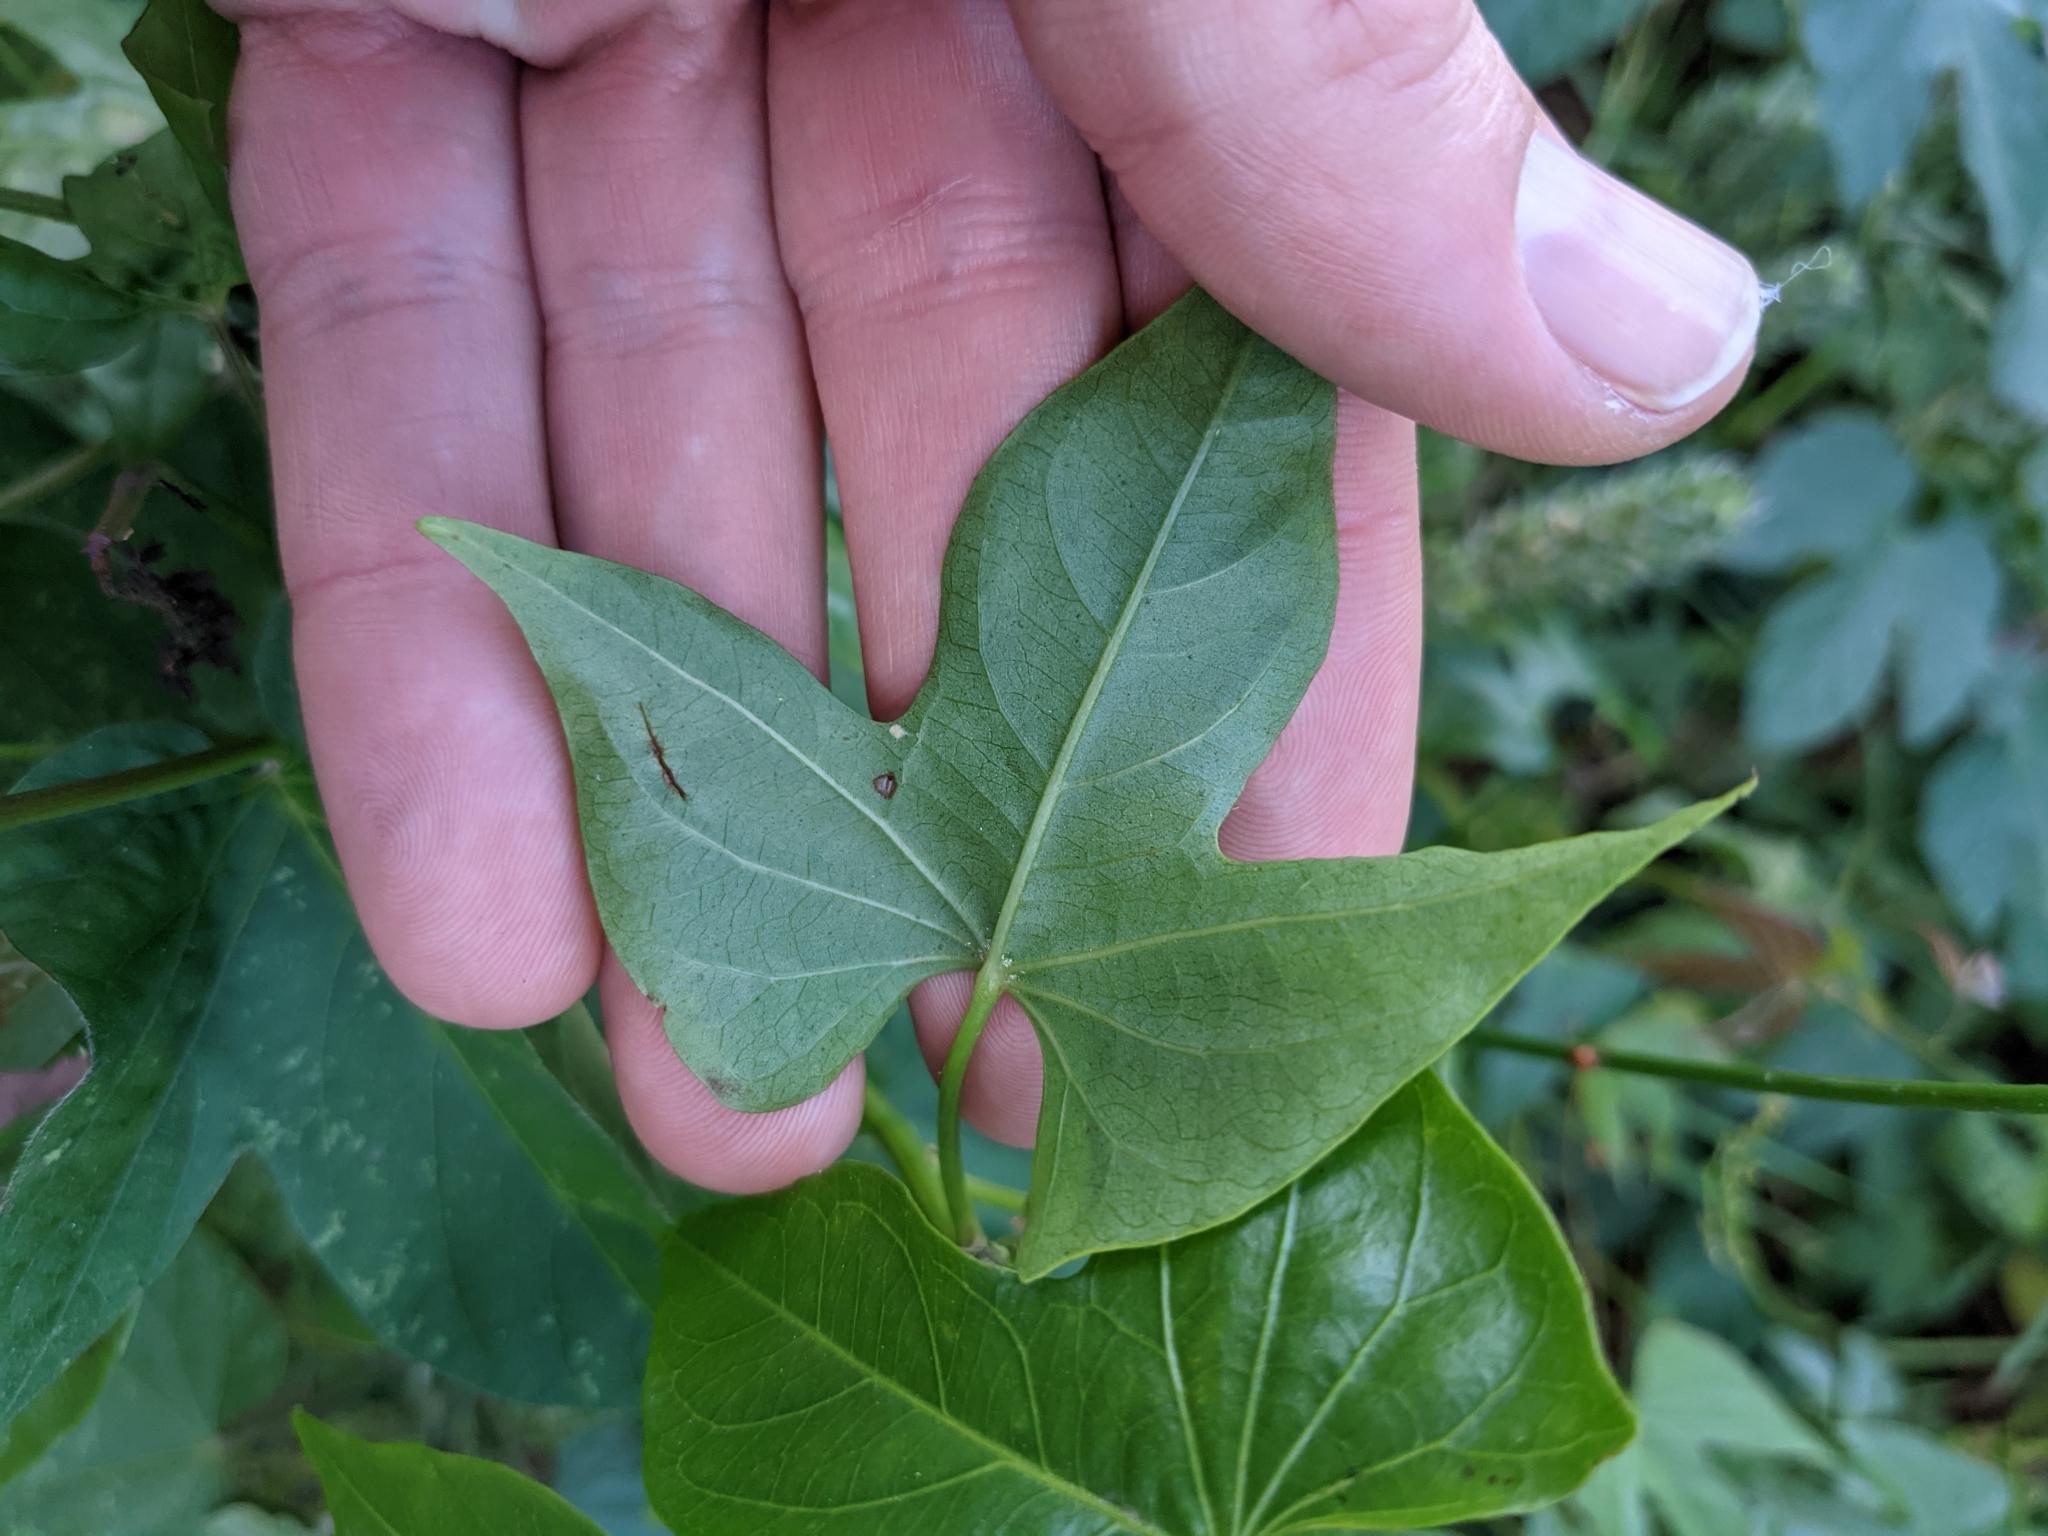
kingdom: Plantae
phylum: Tracheophyta
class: Magnoliopsida
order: Solanales
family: Convolvulaceae
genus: Ipomoea
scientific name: Ipomoea neei
